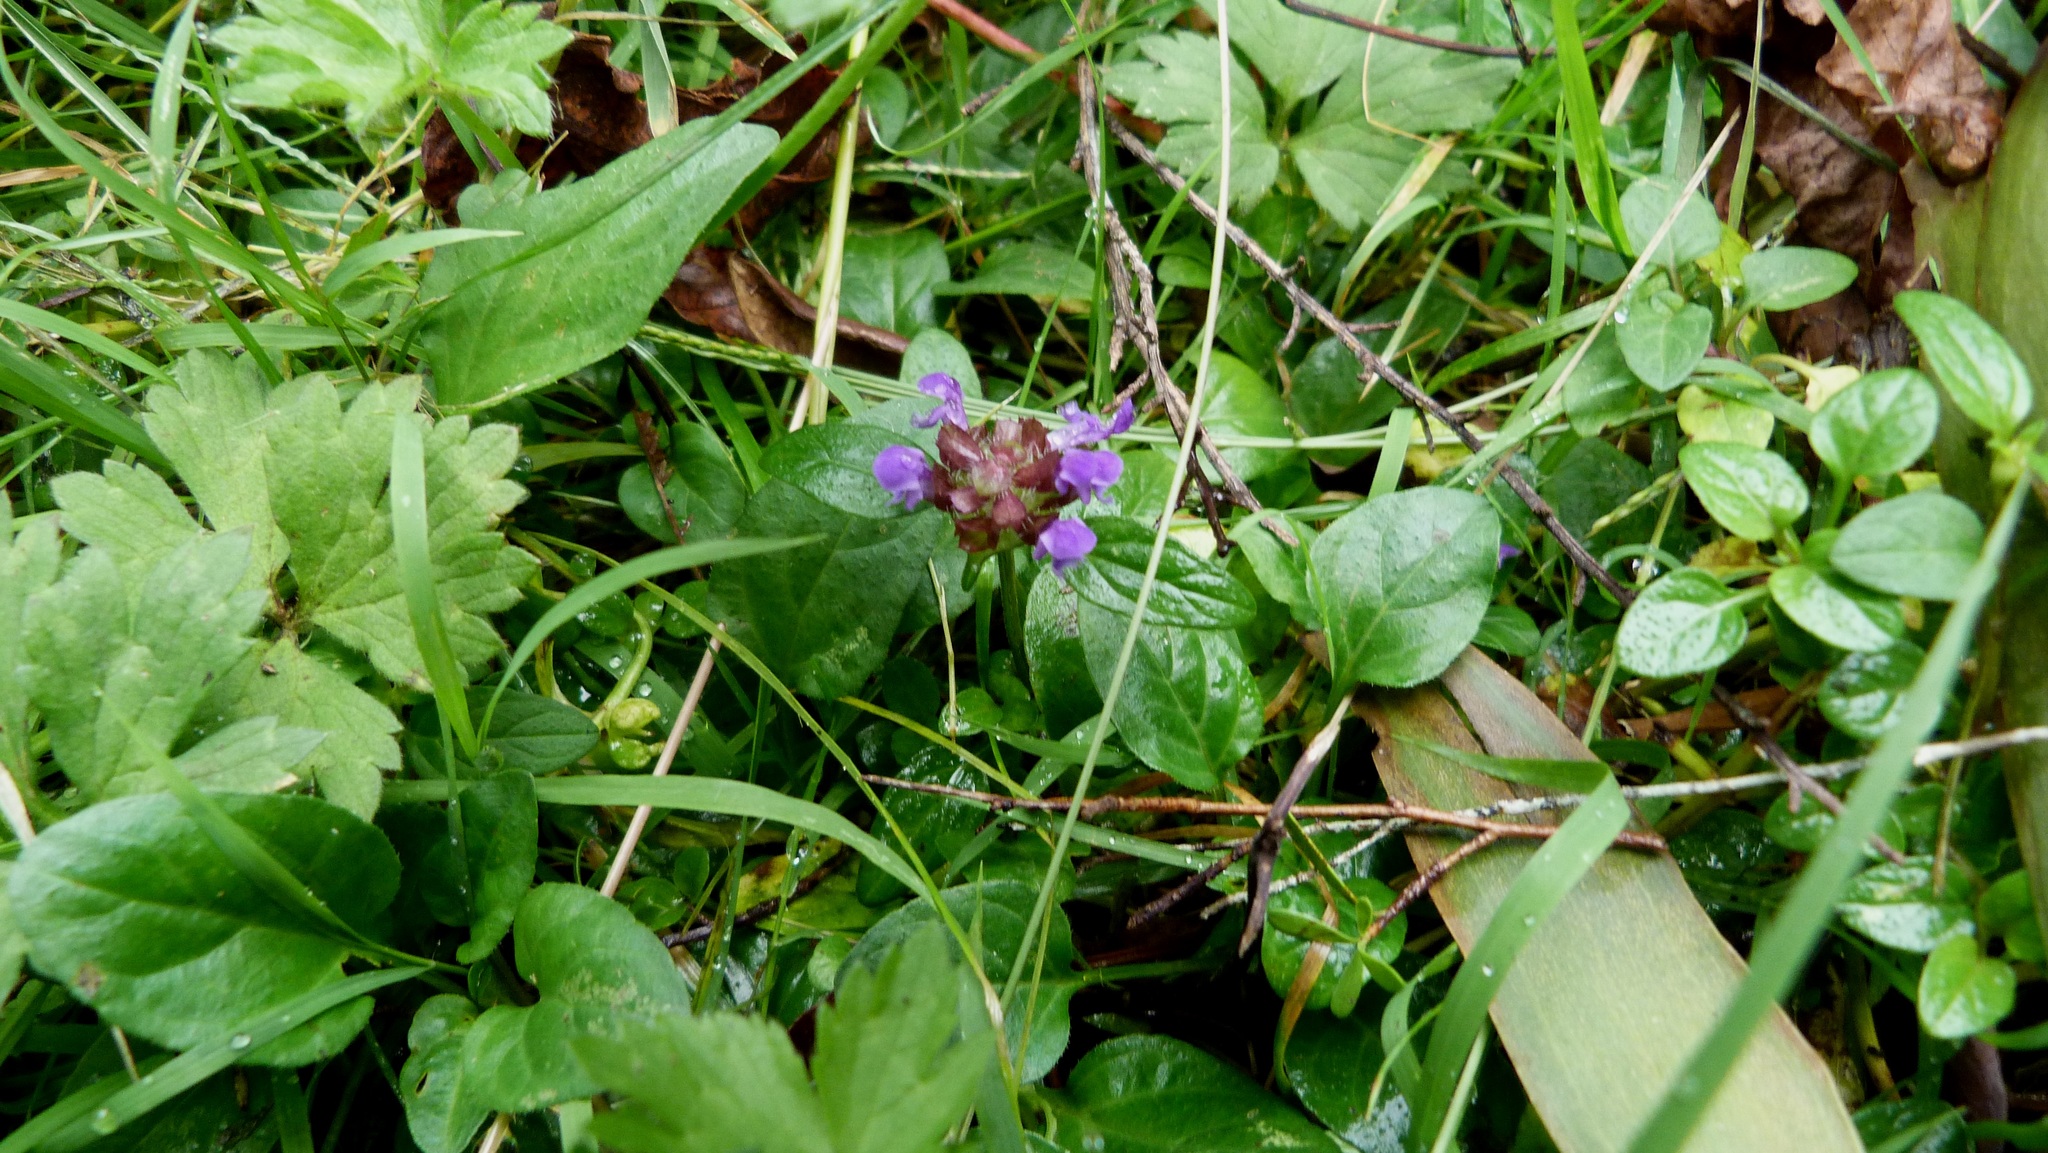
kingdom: Plantae
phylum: Tracheophyta
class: Magnoliopsida
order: Lamiales
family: Lamiaceae
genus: Prunella
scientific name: Prunella vulgaris
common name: Heal-all
